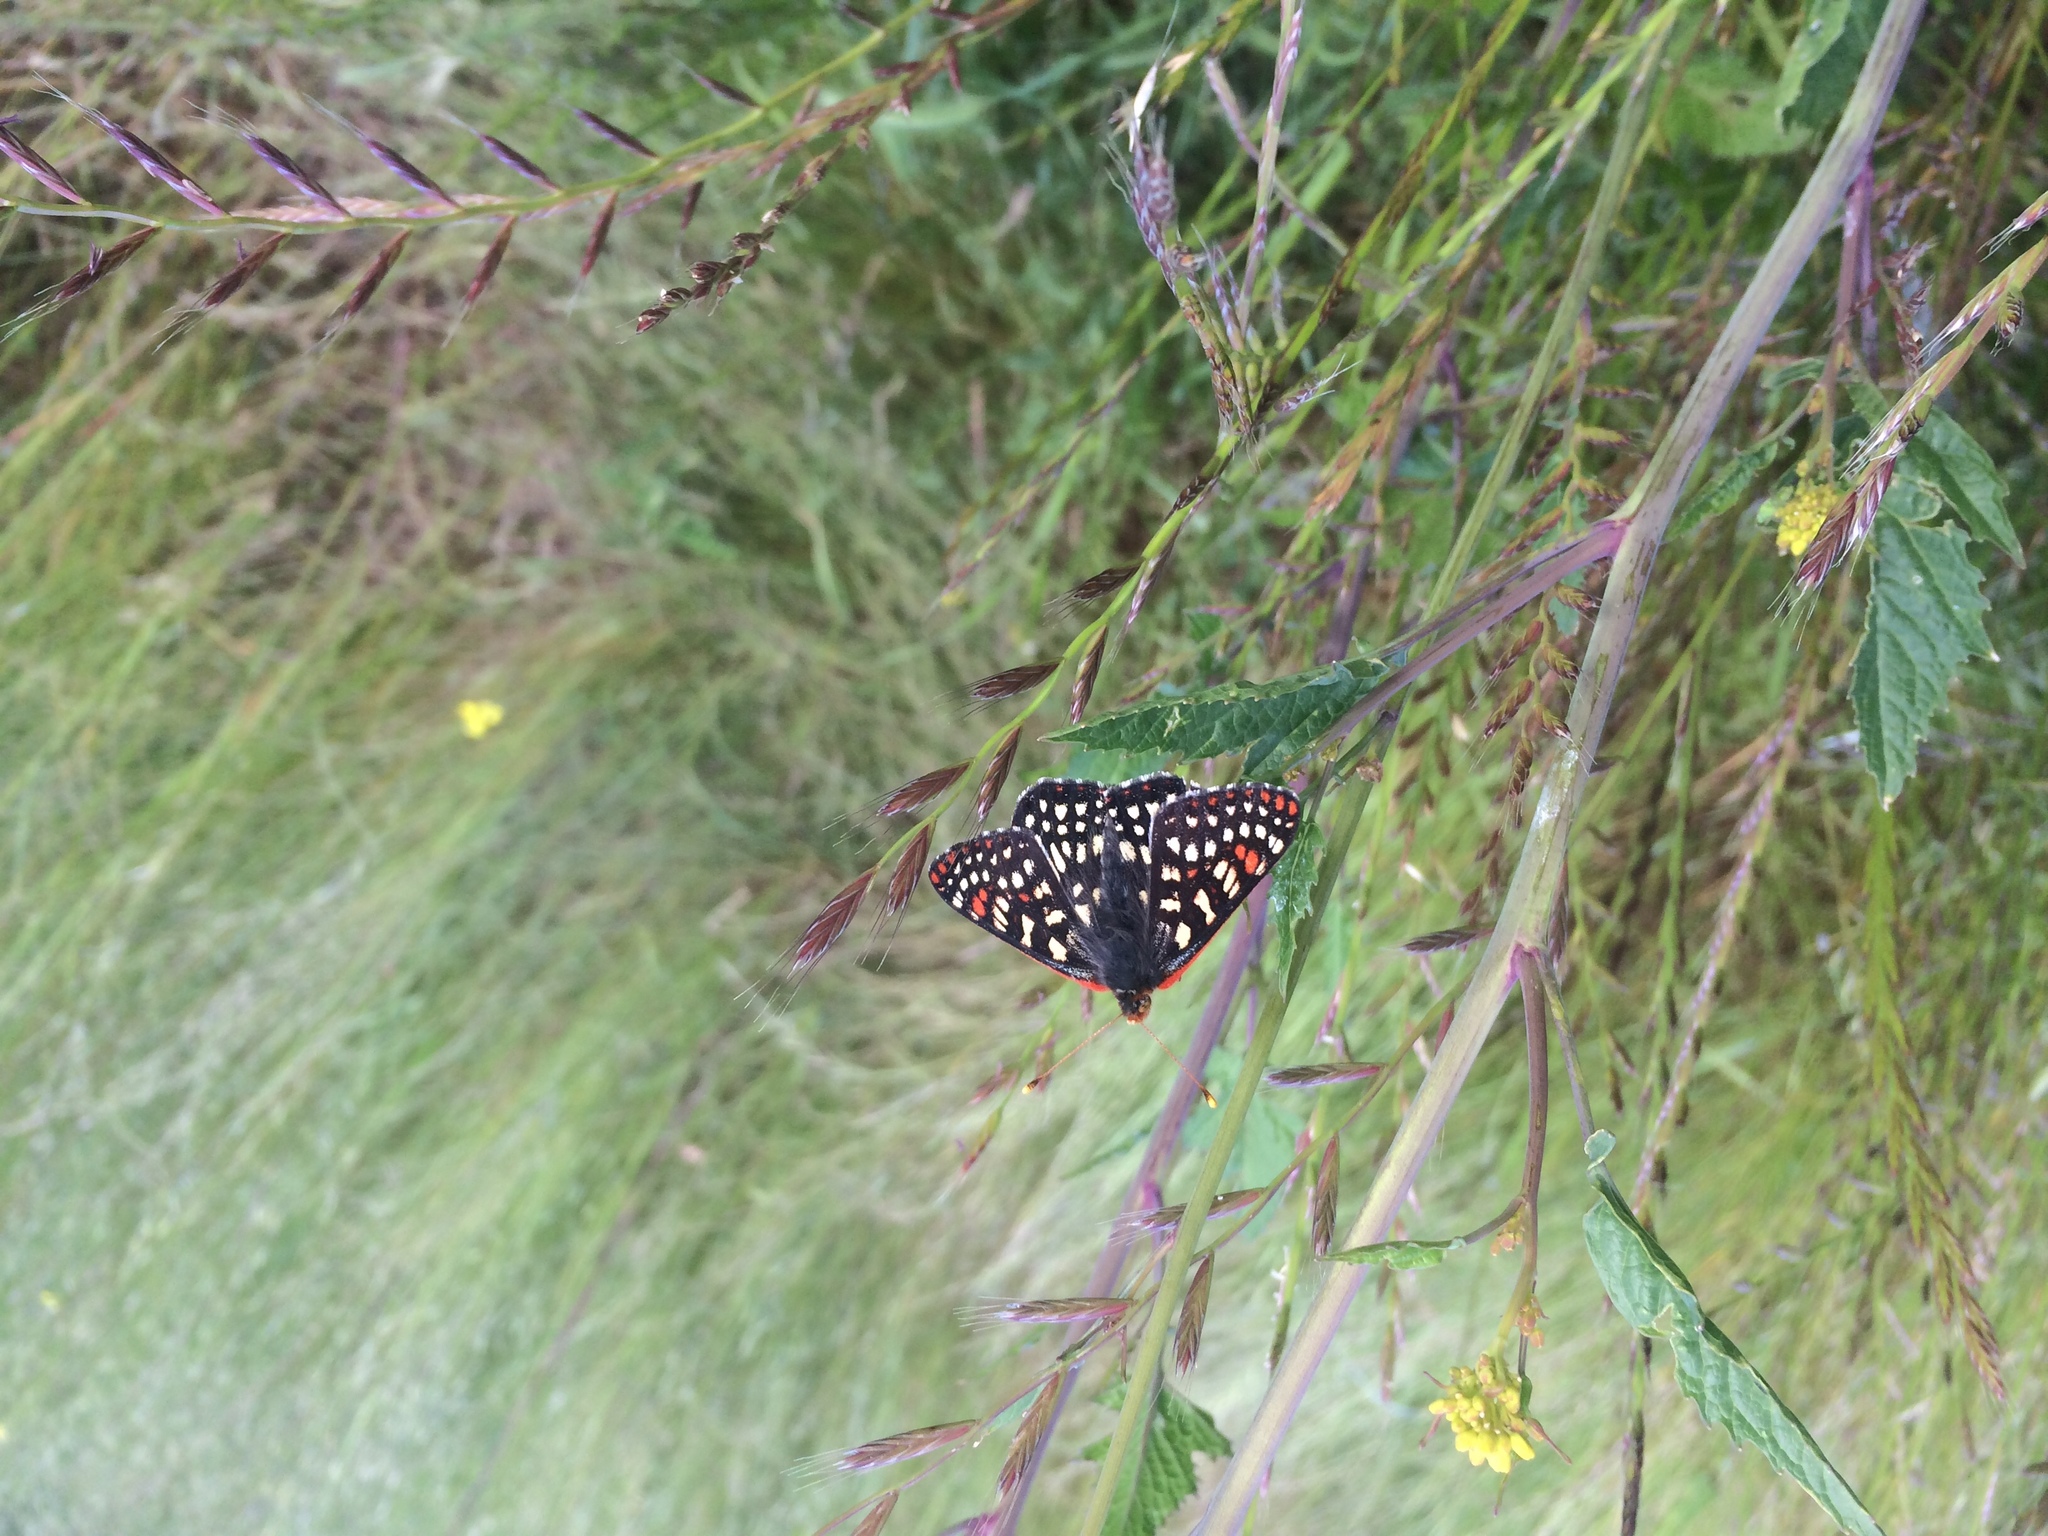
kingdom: Animalia
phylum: Arthropoda
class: Insecta
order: Lepidoptera
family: Nymphalidae
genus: Occidryas
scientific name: Occidryas chalcedona
